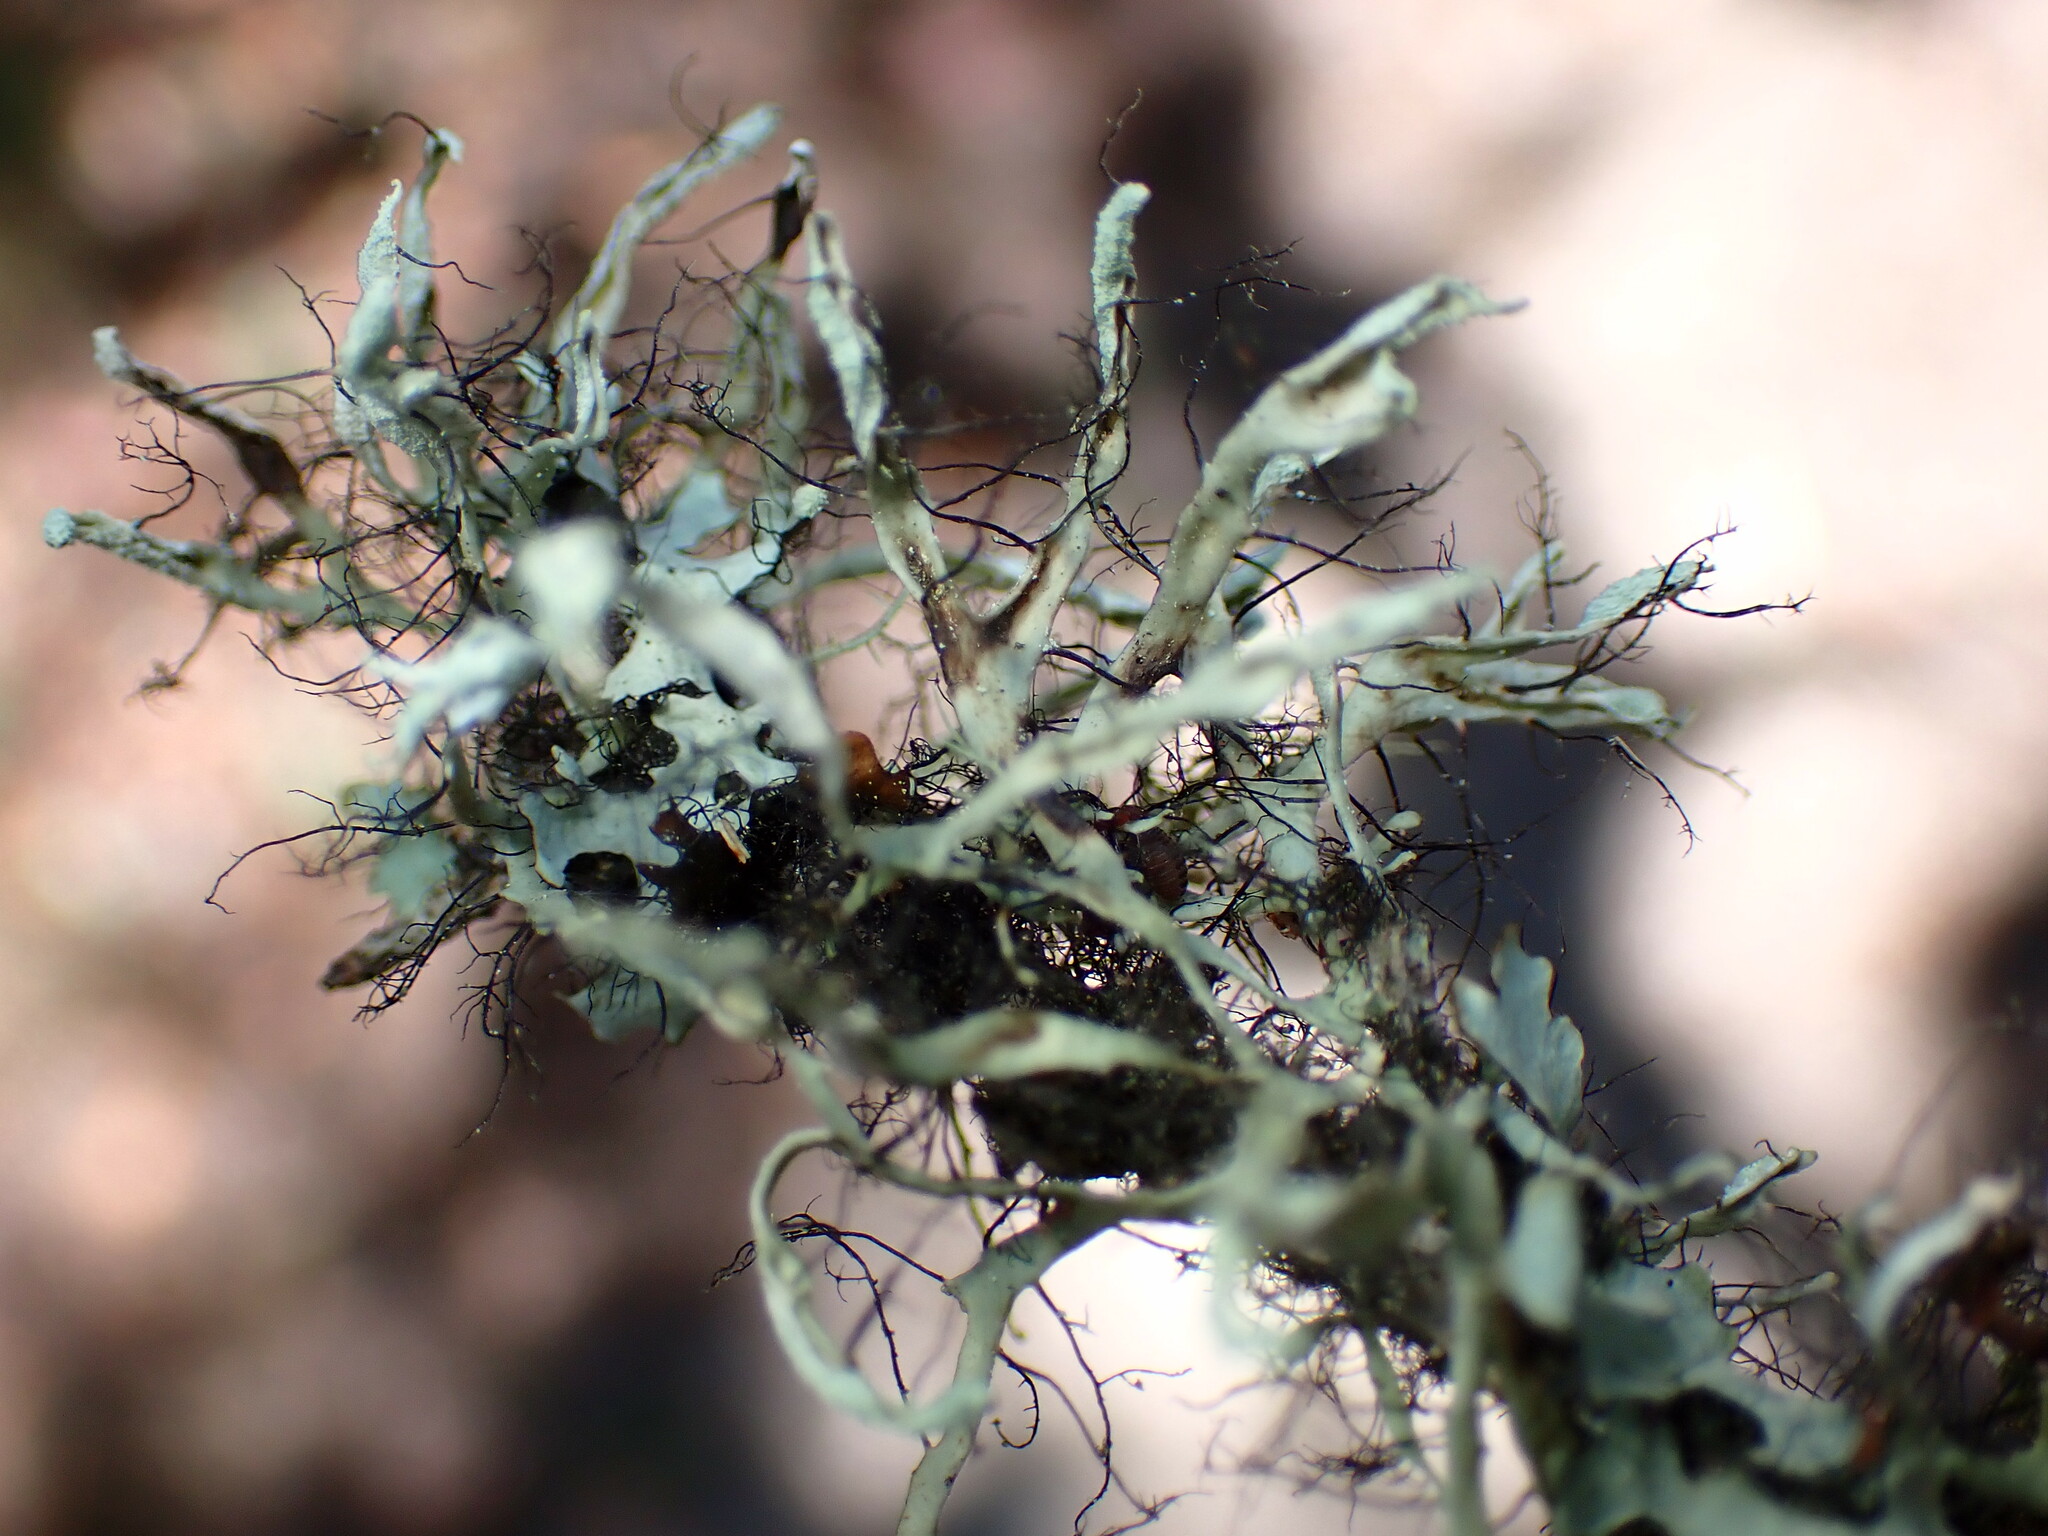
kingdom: Fungi
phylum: Ascomycota
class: Lecanoromycetes
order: Caliciales
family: Physciaceae
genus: Leucodermia
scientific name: Leucodermia leucomelos
